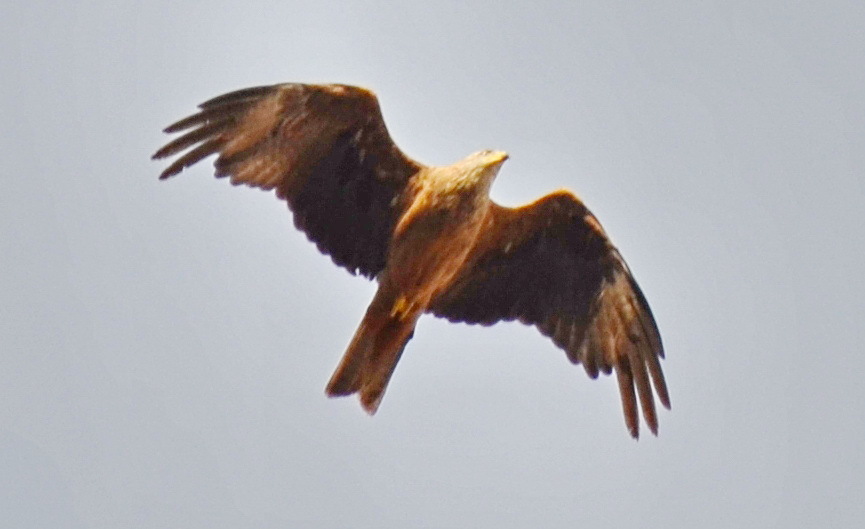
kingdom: Animalia
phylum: Chordata
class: Aves
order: Accipitriformes
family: Accipitridae
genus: Milvus
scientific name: Milvus migrans
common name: Black kite
